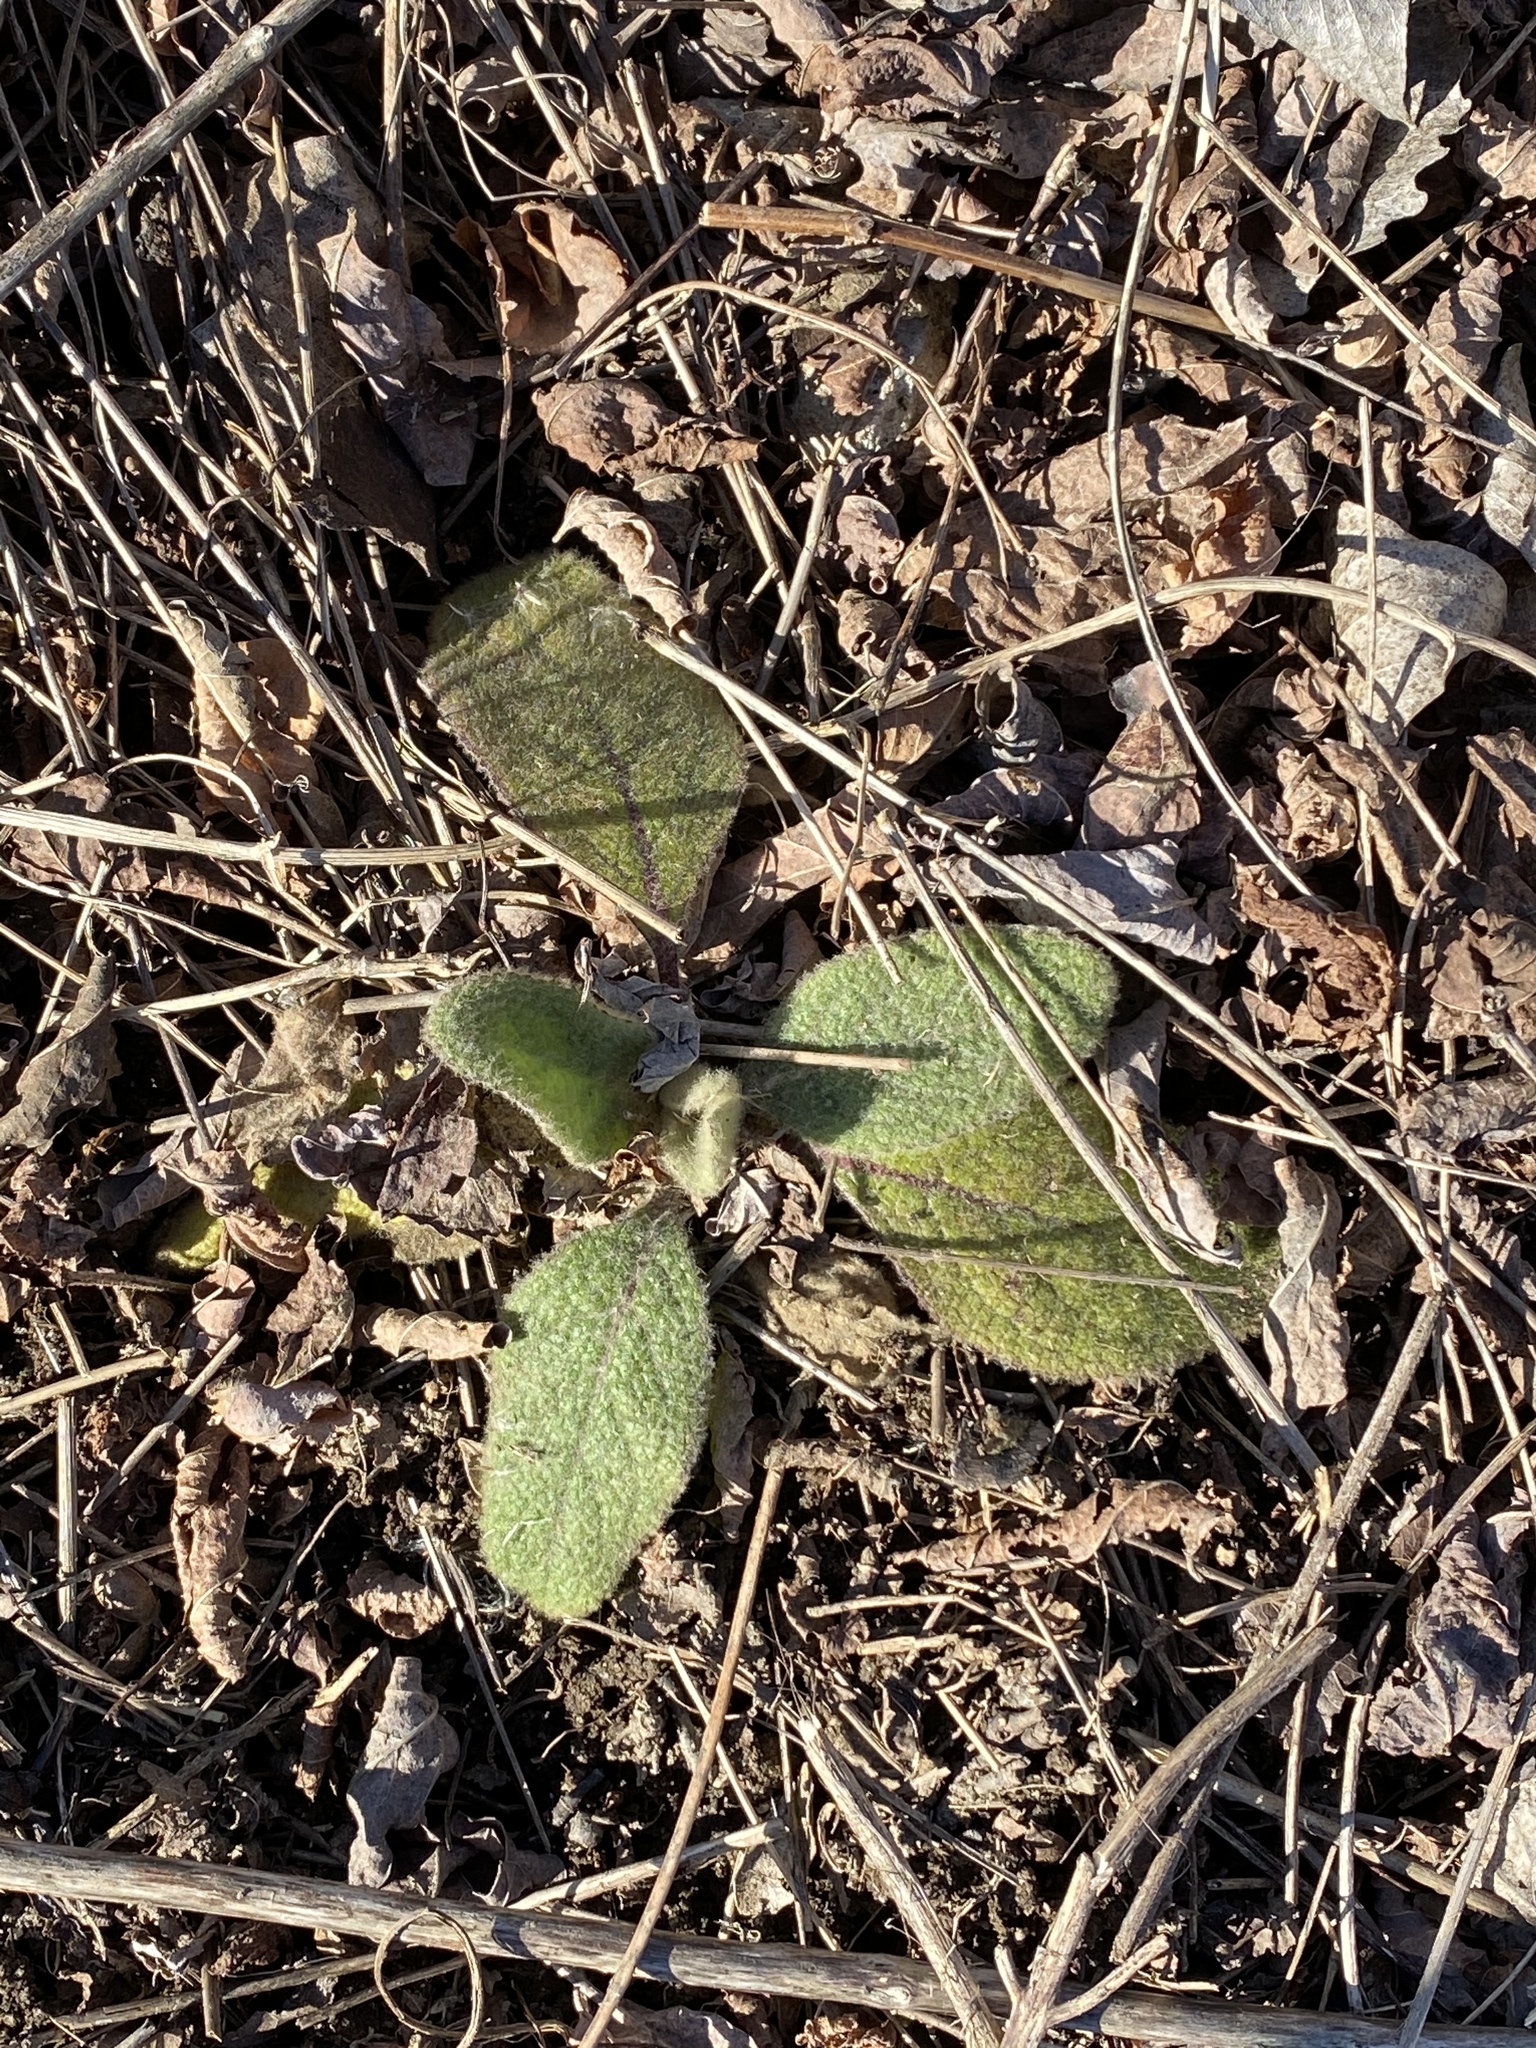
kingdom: Plantae
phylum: Tracheophyta
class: Magnoliopsida
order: Lamiales
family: Scrophulariaceae
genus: Verbascum
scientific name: Verbascum thapsus
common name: Common mullein
